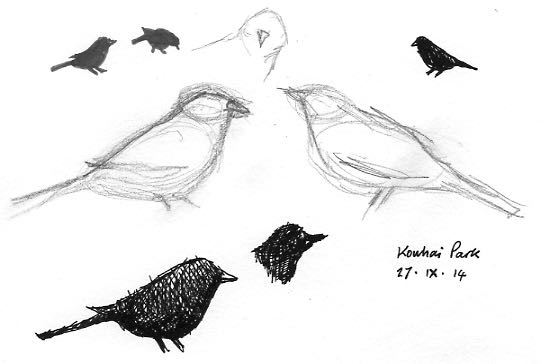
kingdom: Animalia
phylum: Chordata
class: Aves
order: Passeriformes
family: Turdidae
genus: Turdus
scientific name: Turdus merula
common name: Common blackbird
